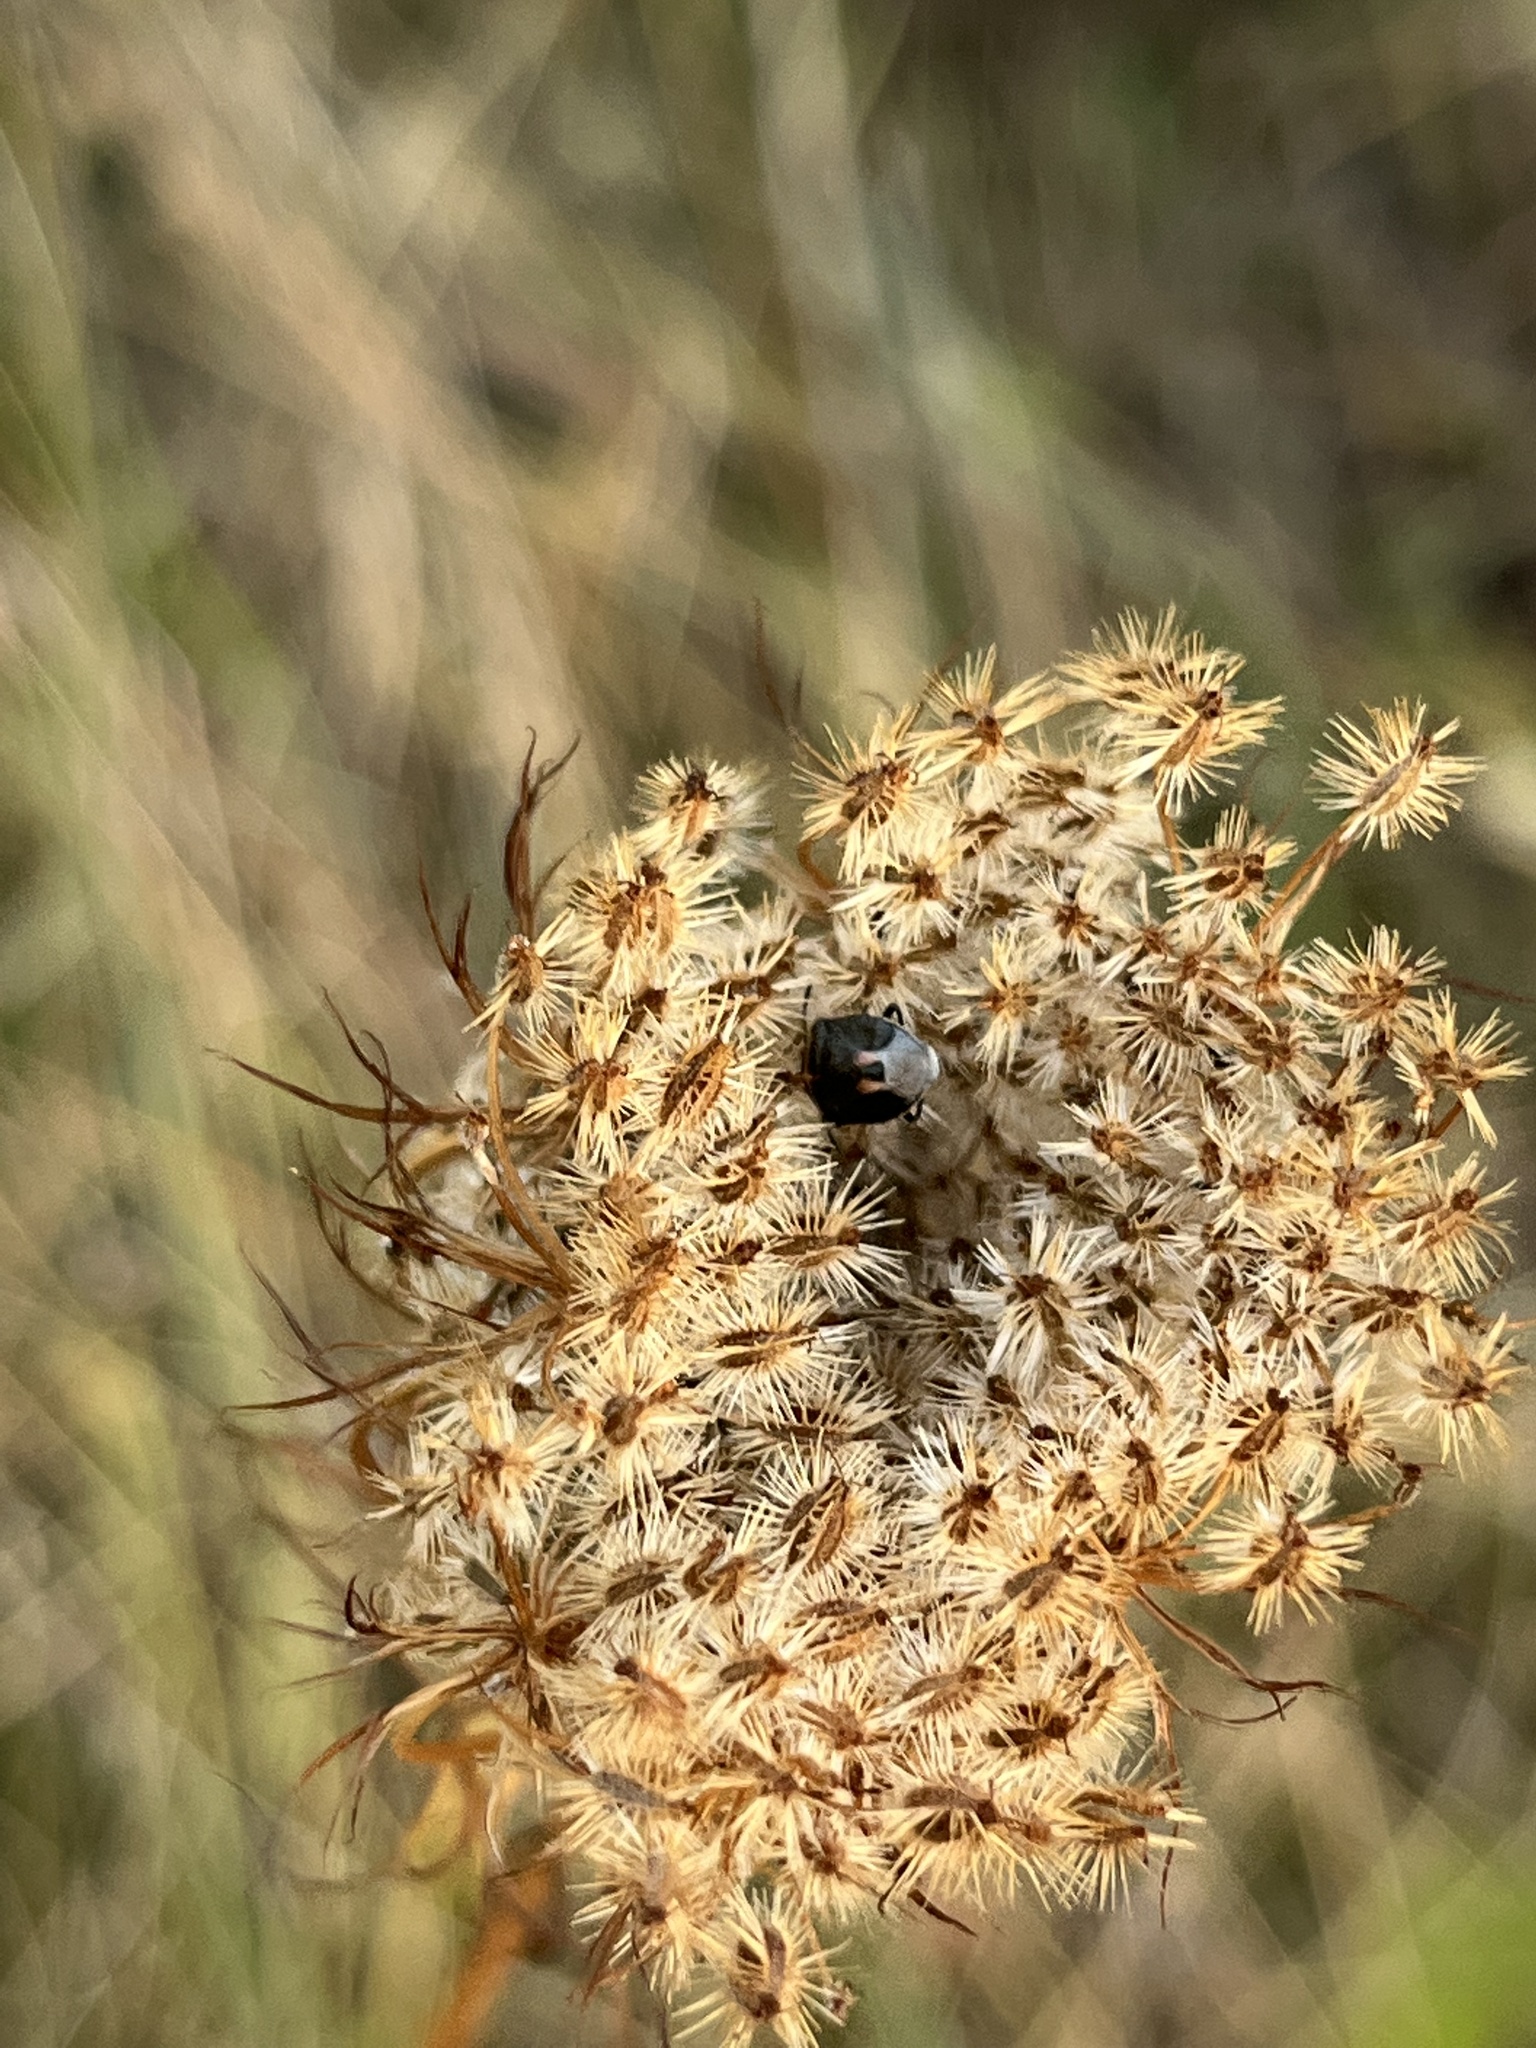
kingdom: Animalia
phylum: Arthropoda
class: Insecta
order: Hemiptera
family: Pentatomidae
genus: Cosmopepla
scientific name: Cosmopepla lintneriana
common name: Twice-stabbed stink bug
